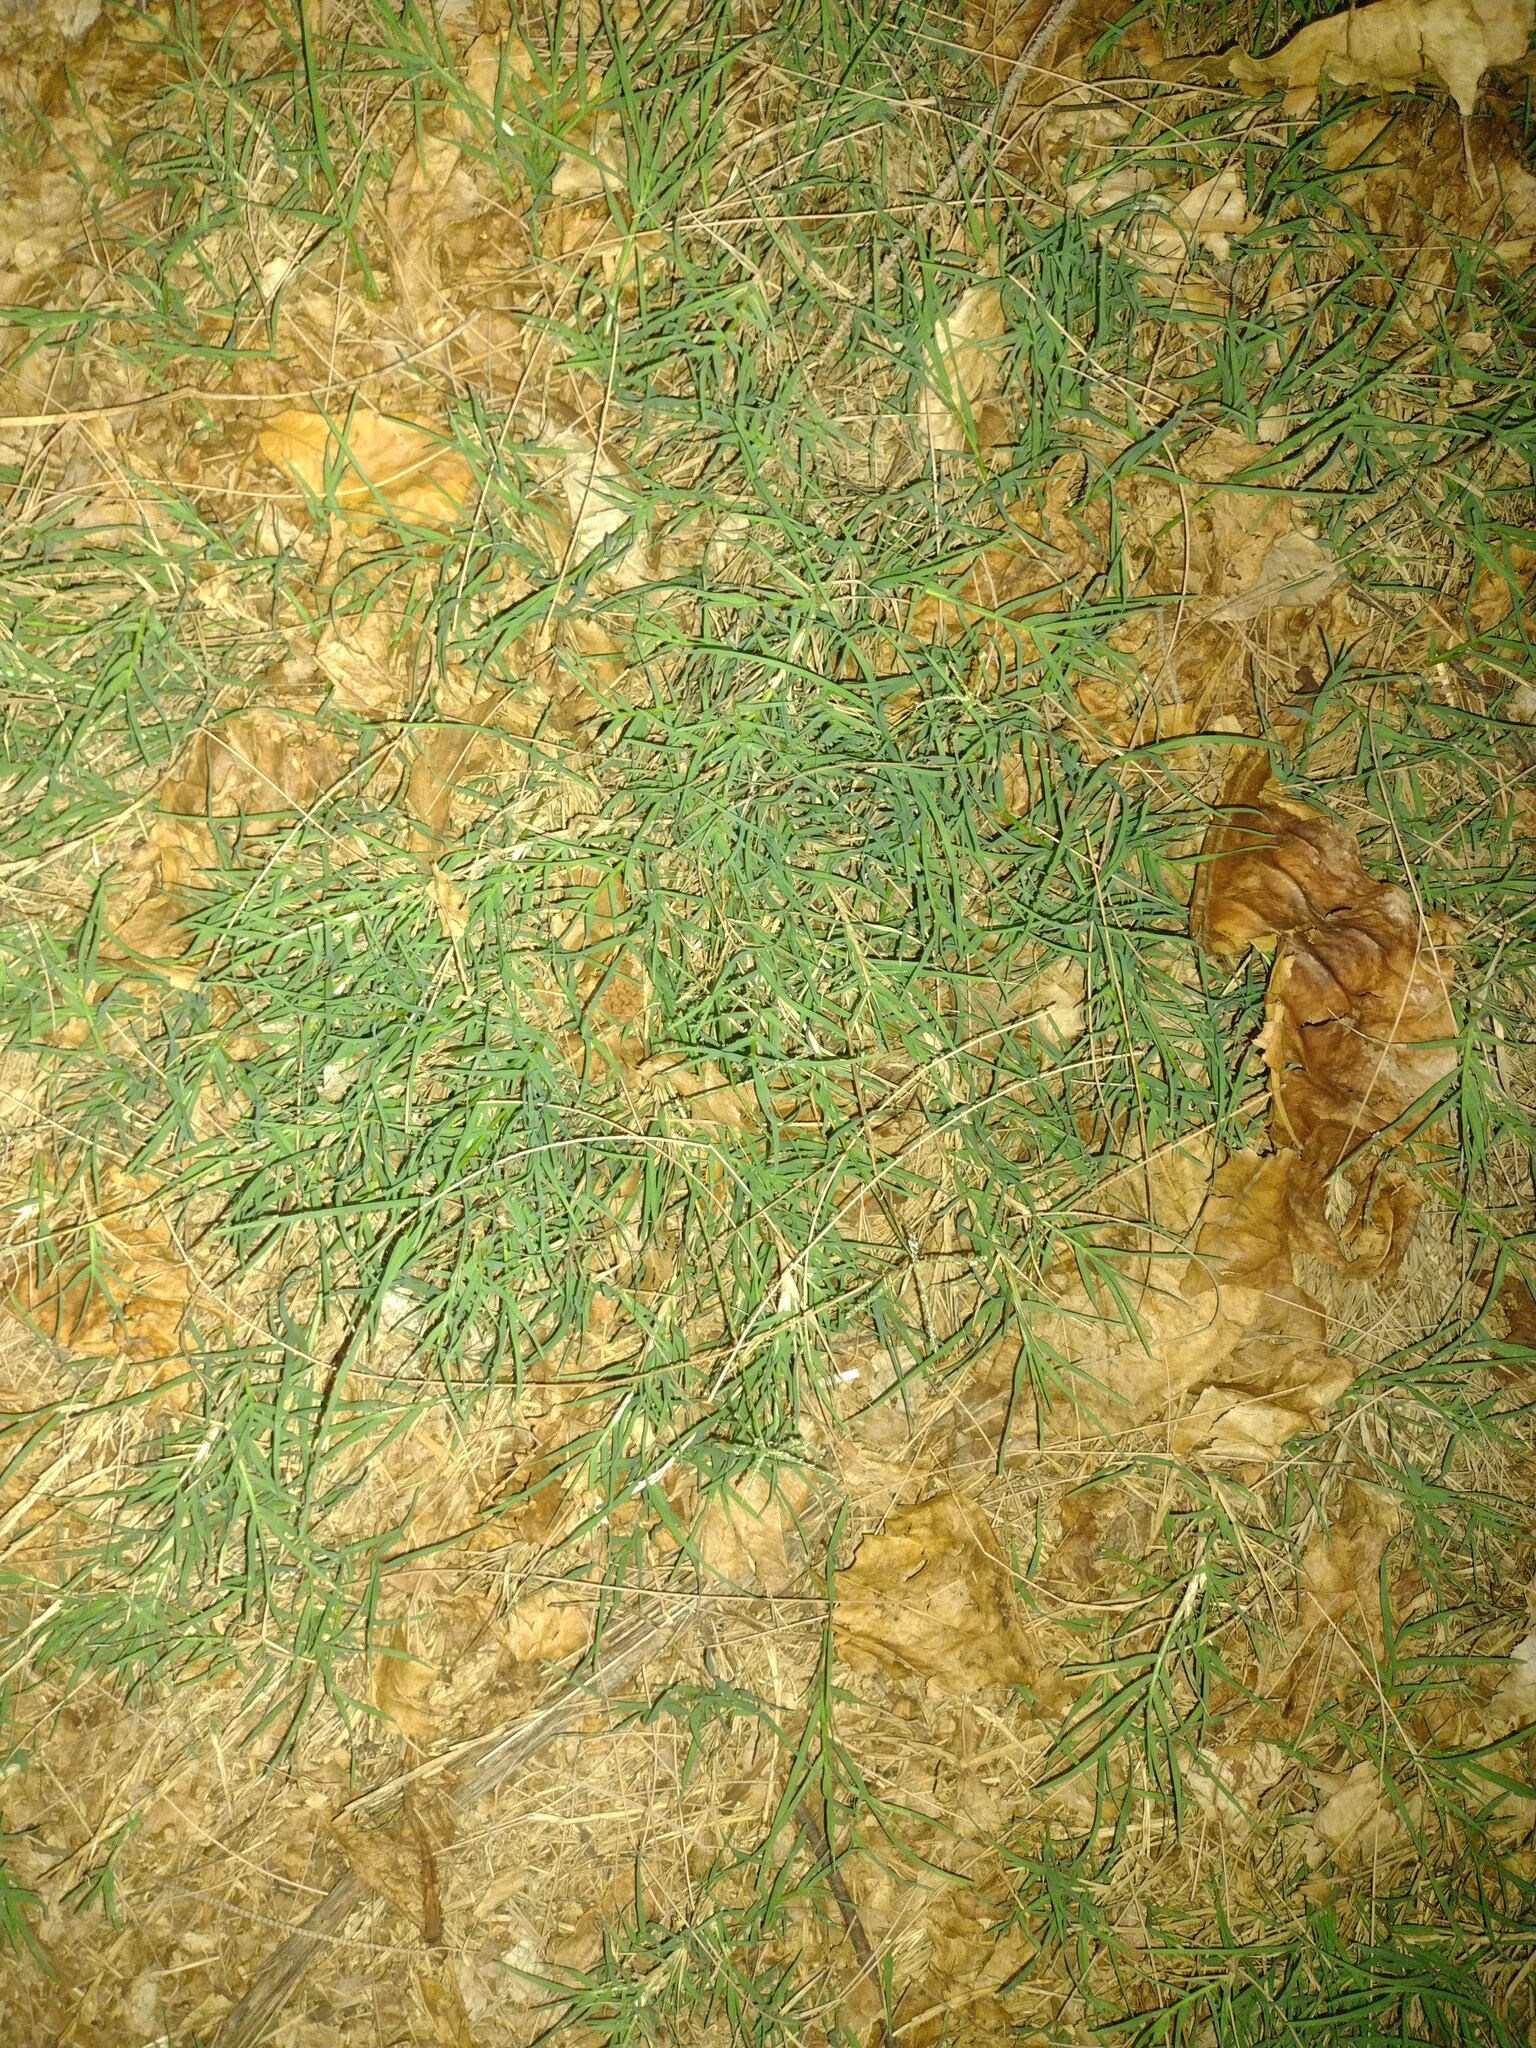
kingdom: Plantae
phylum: Tracheophyta
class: Liliopsida
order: Poales
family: Poaceae
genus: Cynodon
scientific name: Cynodon dactylon
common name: Bermuda grass
